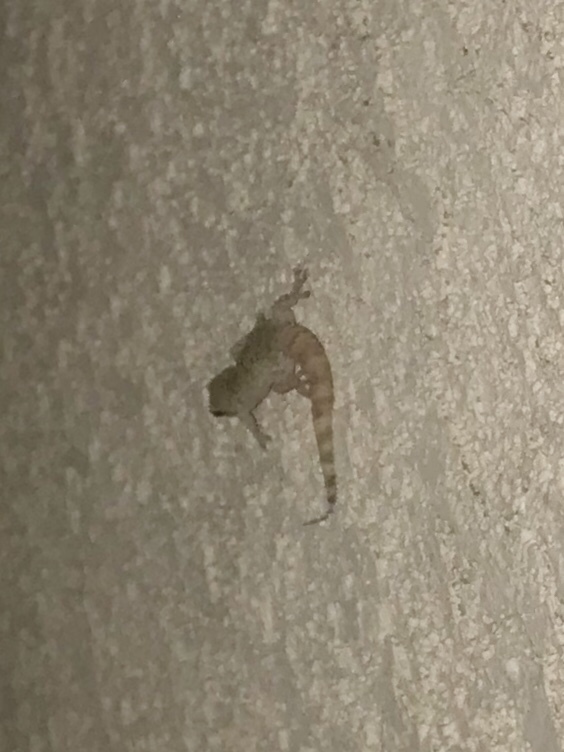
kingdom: Animalia
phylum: Chordata
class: Squamata
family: Gekkonidae
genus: Hemidactylus
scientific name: Hemidactylus turcicus
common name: Turkish gecko
